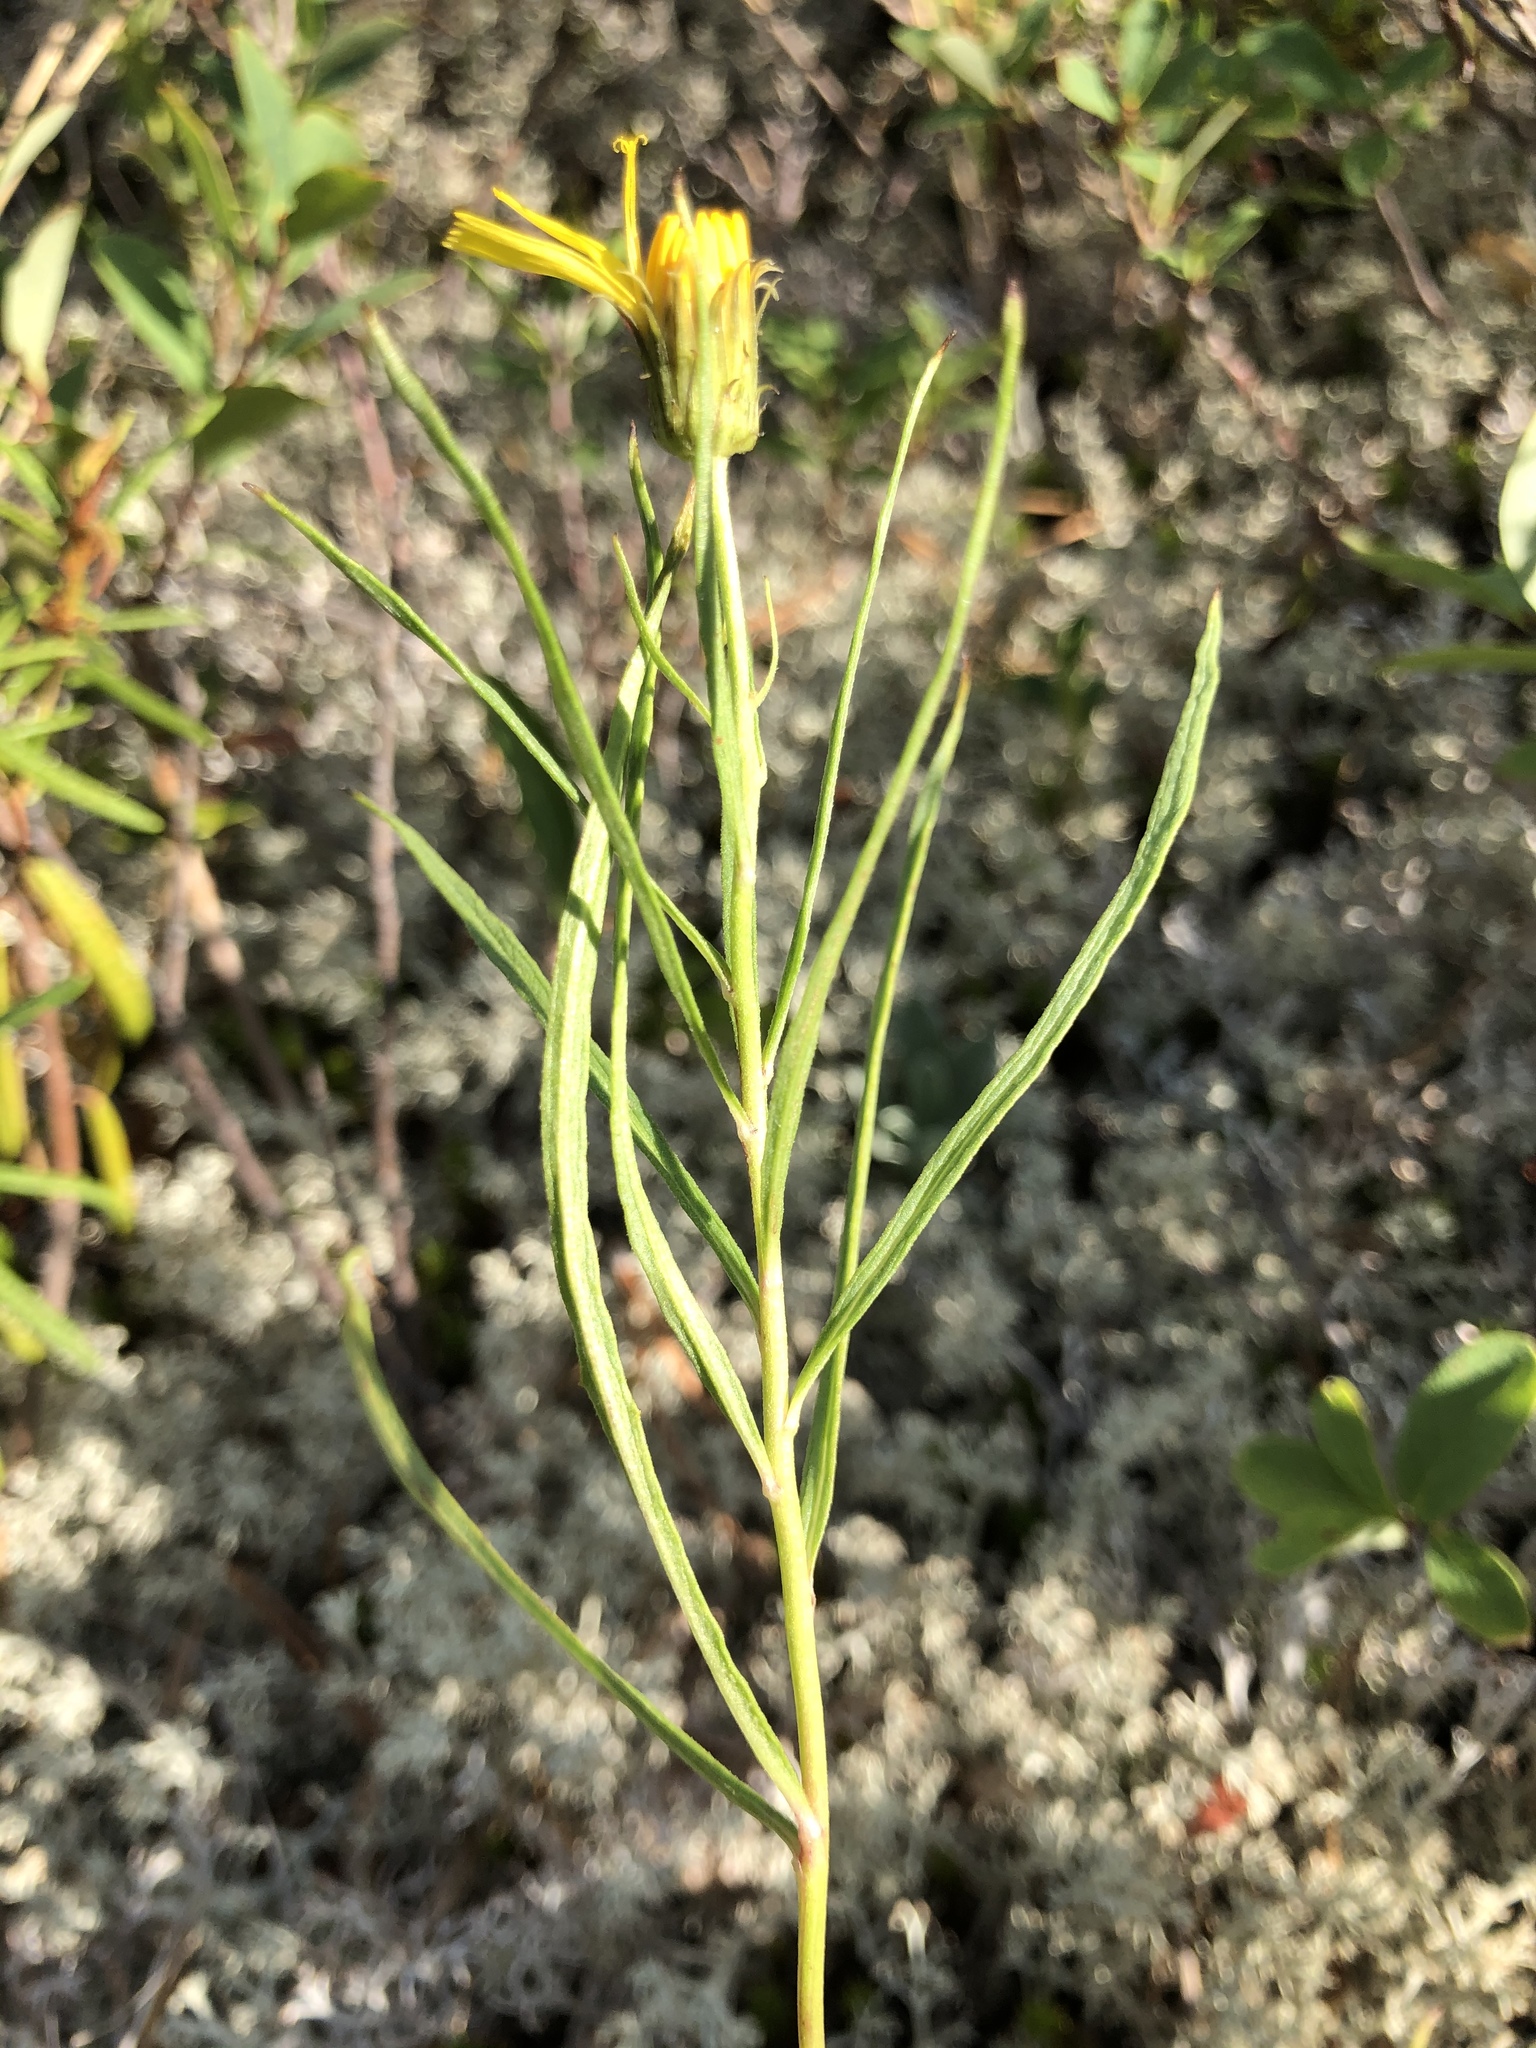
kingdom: Plantae
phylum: Tracheophyta
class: Magnoliopsida
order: Asterales
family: Asteraceae
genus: Hieracium
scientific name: Hieracium umbellatum
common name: Northern hawkweed
